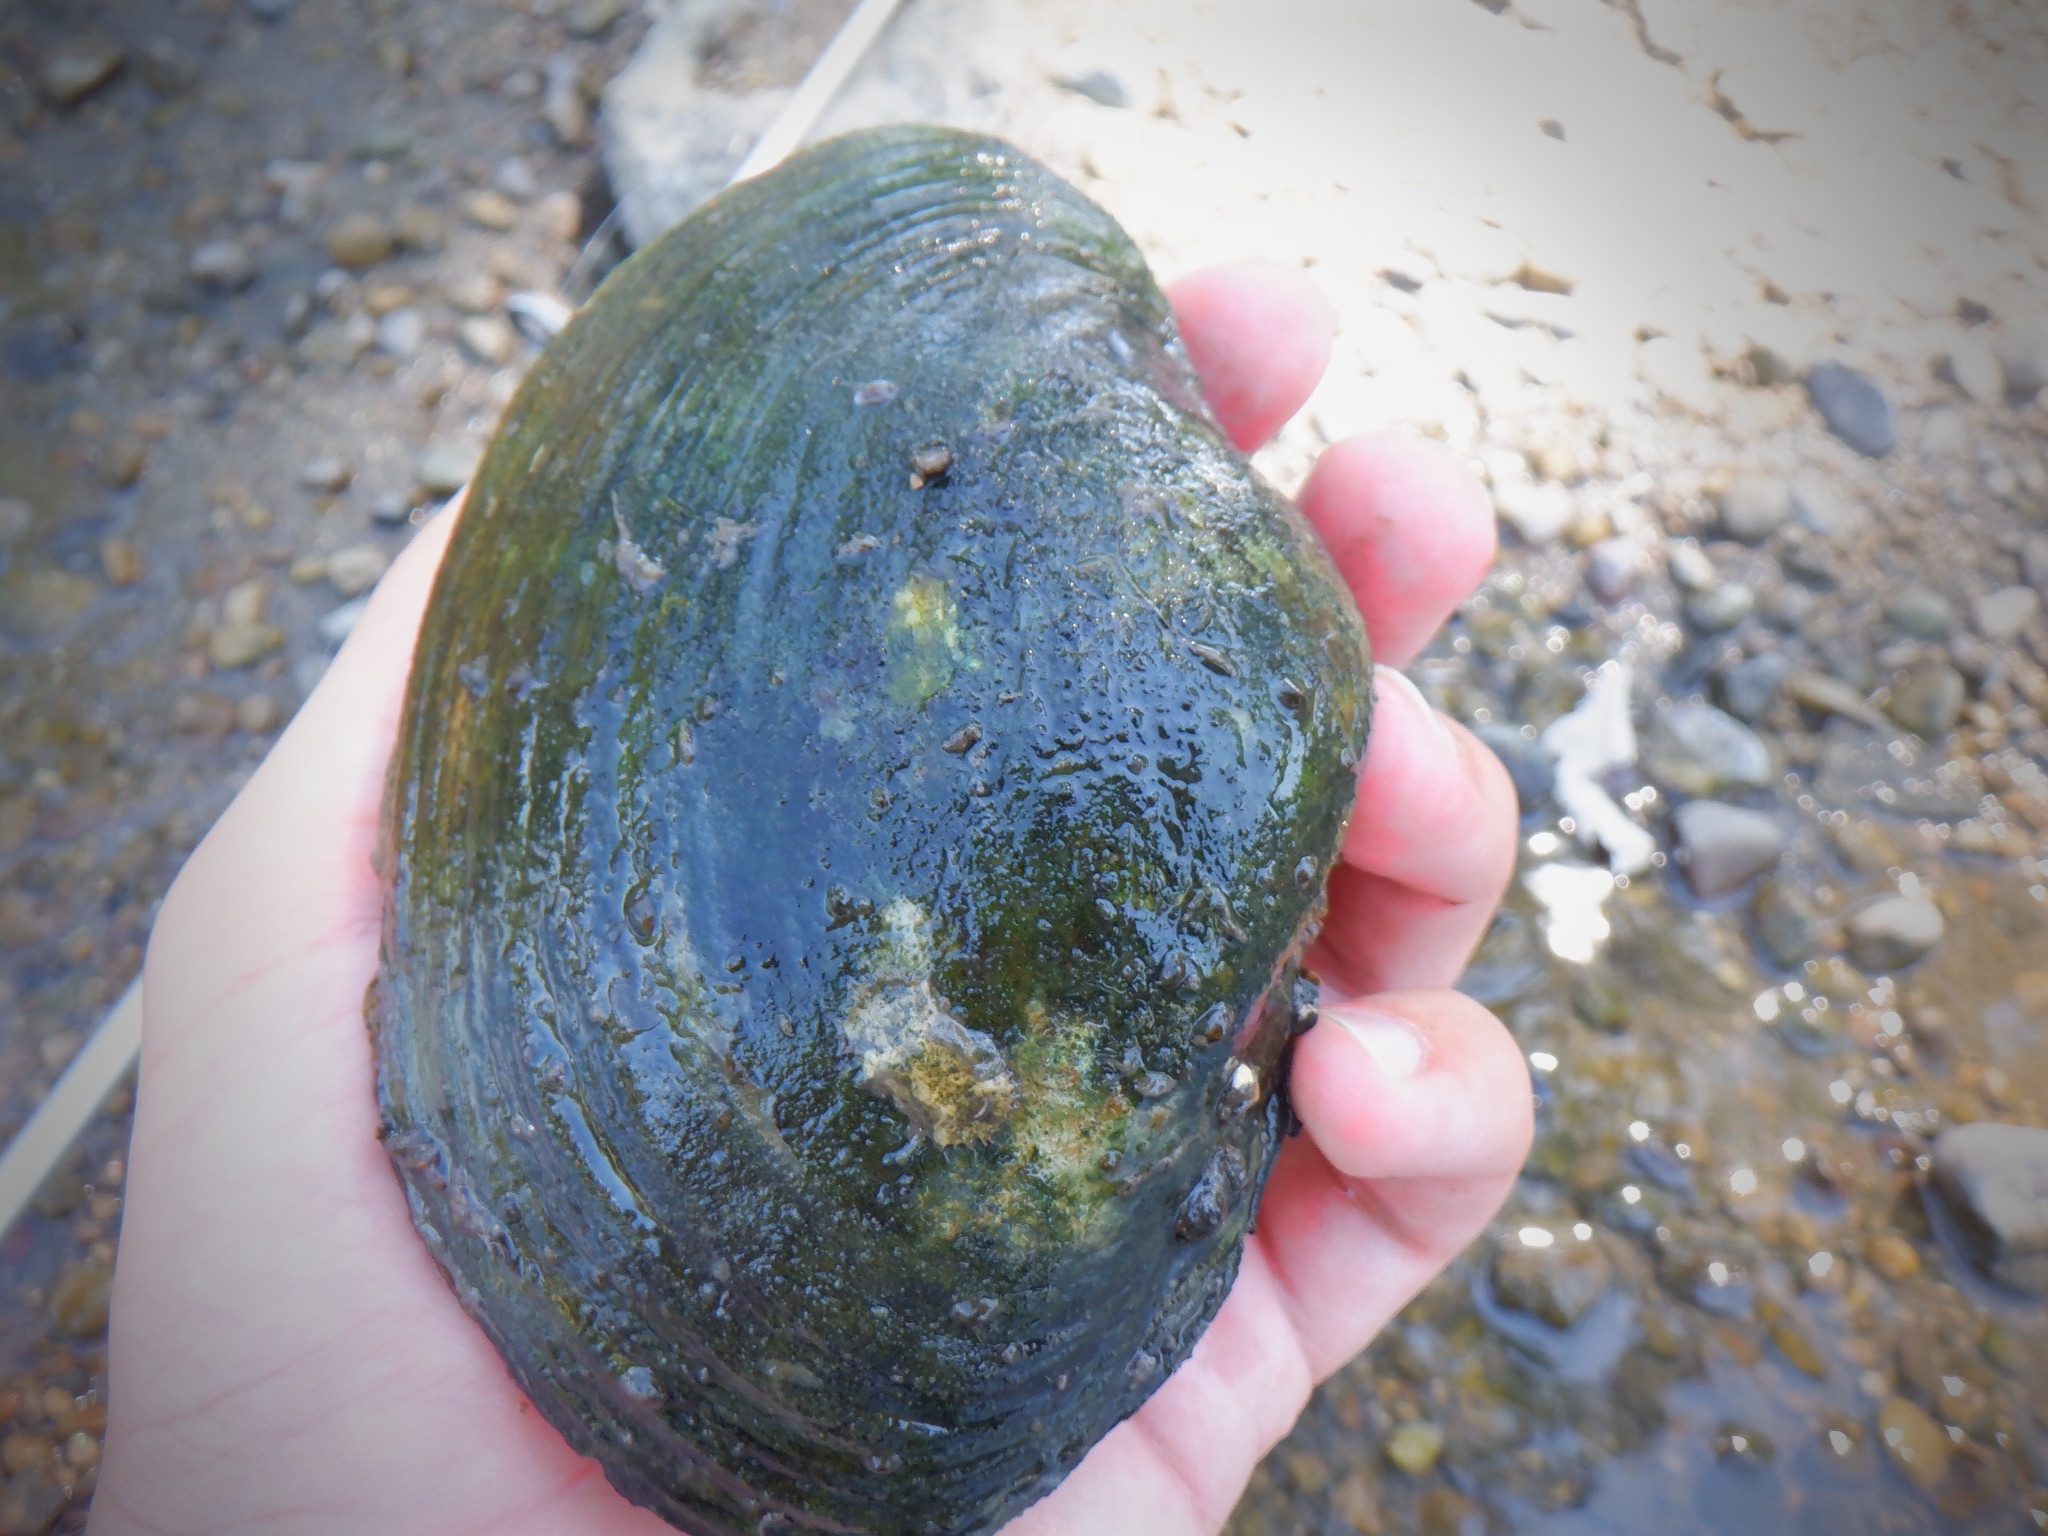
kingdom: Animalia
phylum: Mollusca
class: Bivalvia
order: Unionida
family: Unionidae
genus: Lampsilis
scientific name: Lampsilis cardium
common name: Plain pocketbook
